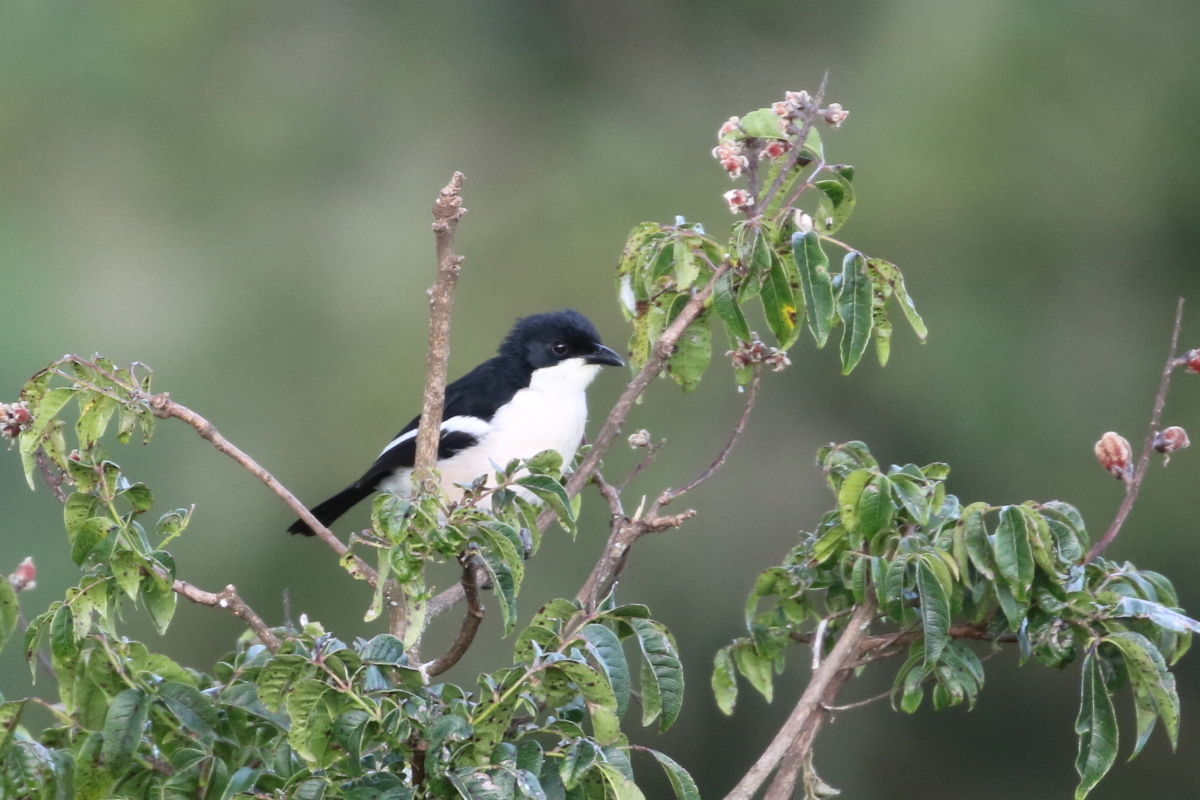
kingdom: Animalia
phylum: Chordata
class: Aves
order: Passeriformes
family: Malaconotidae
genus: Laniarius
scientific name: Laniarius major
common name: Tropical boubou
